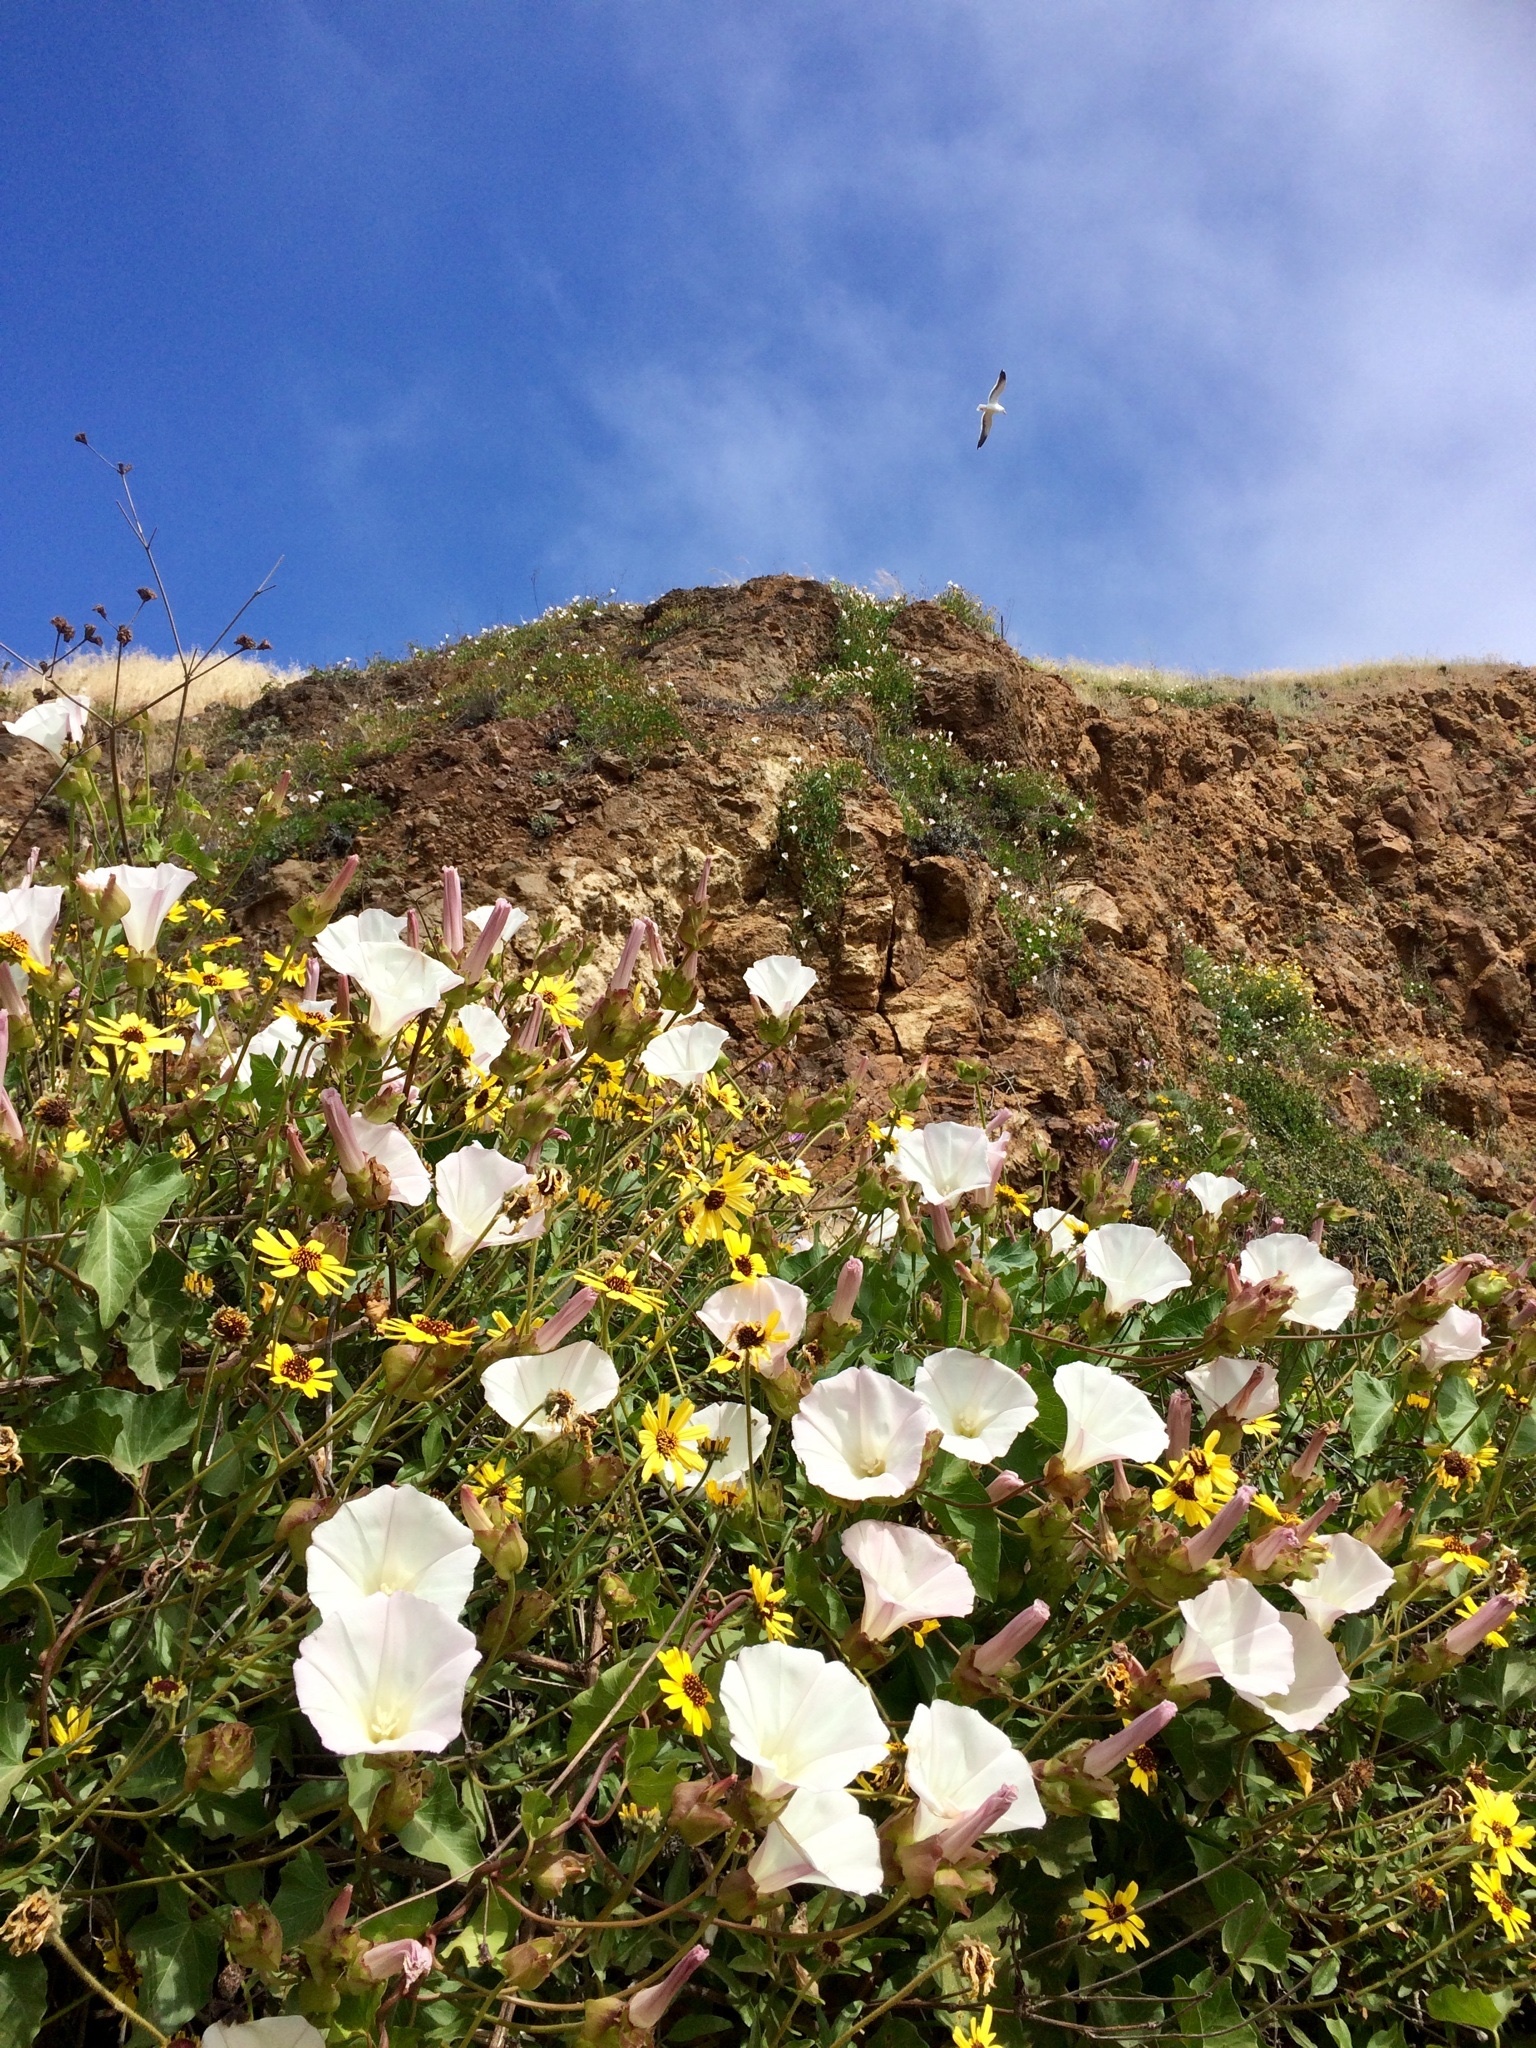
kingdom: Plantae
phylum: Tracheophyta
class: Magnoliopsida
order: Solanales
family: Convolvulaceae
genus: Calystegia
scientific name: Calystegia macrostegia
